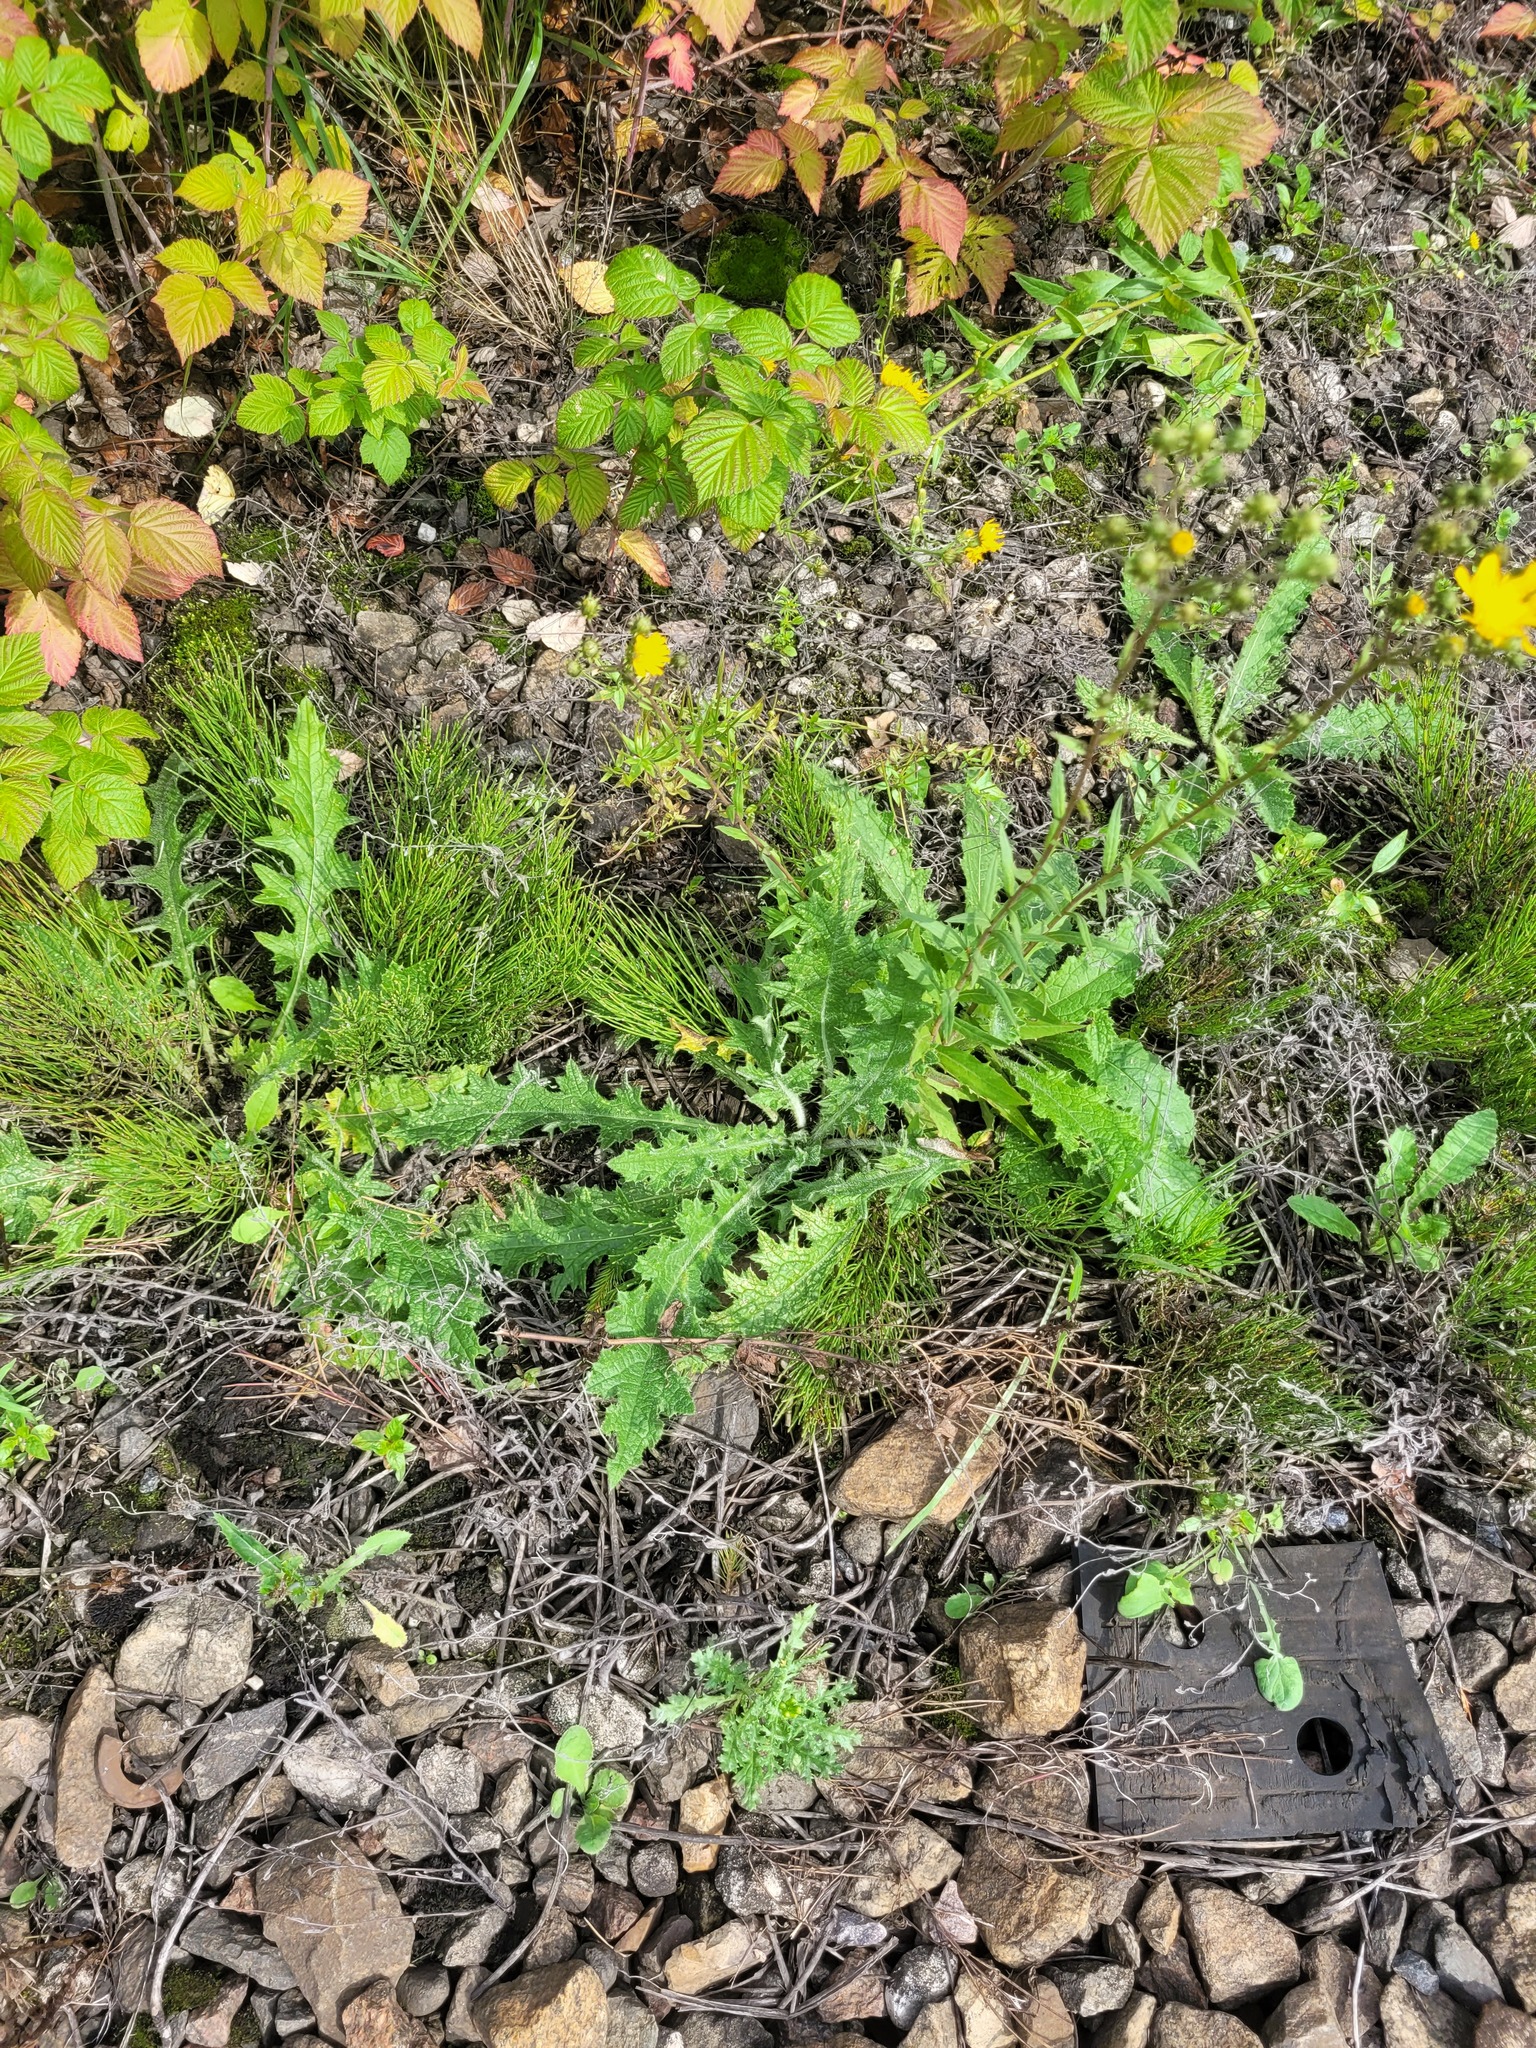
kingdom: Plantae
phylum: Tracheophyta
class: Magnoliopsida
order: Asterales
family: Asteraceae
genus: Cirsium
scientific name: Cirsium vulgare
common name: Bull thistle
